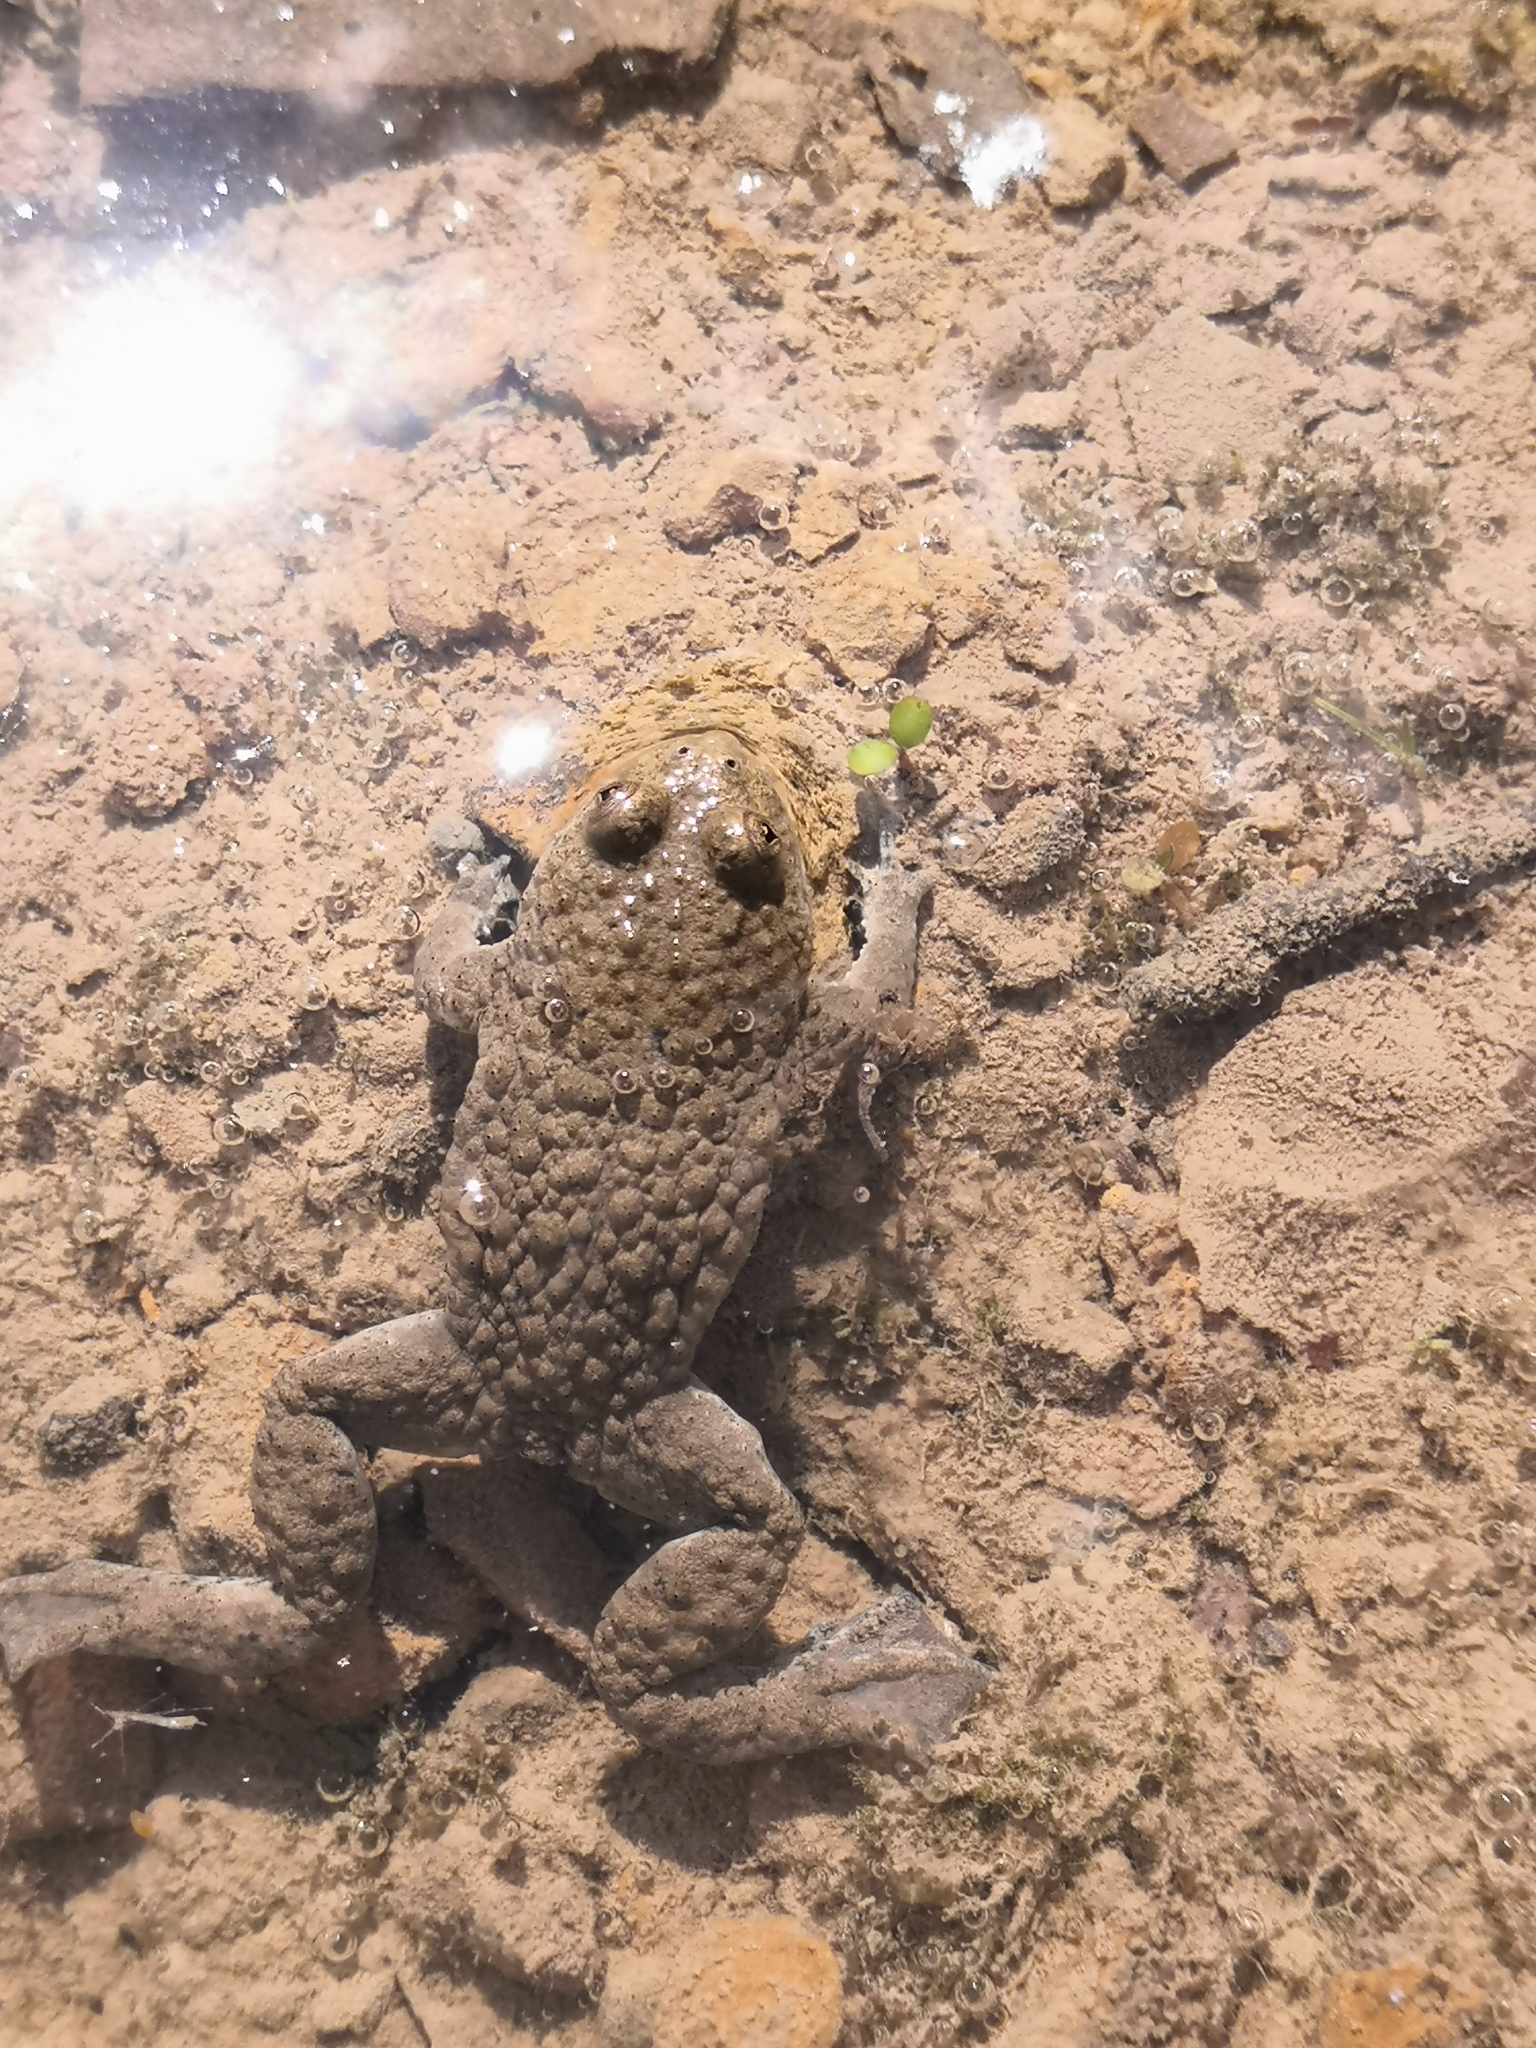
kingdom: Animalia
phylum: Chordata
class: Amphibia
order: Anura
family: Bombinatoridae
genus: Bombina
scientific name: Bombina variegata
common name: Yellow-bellied toad
